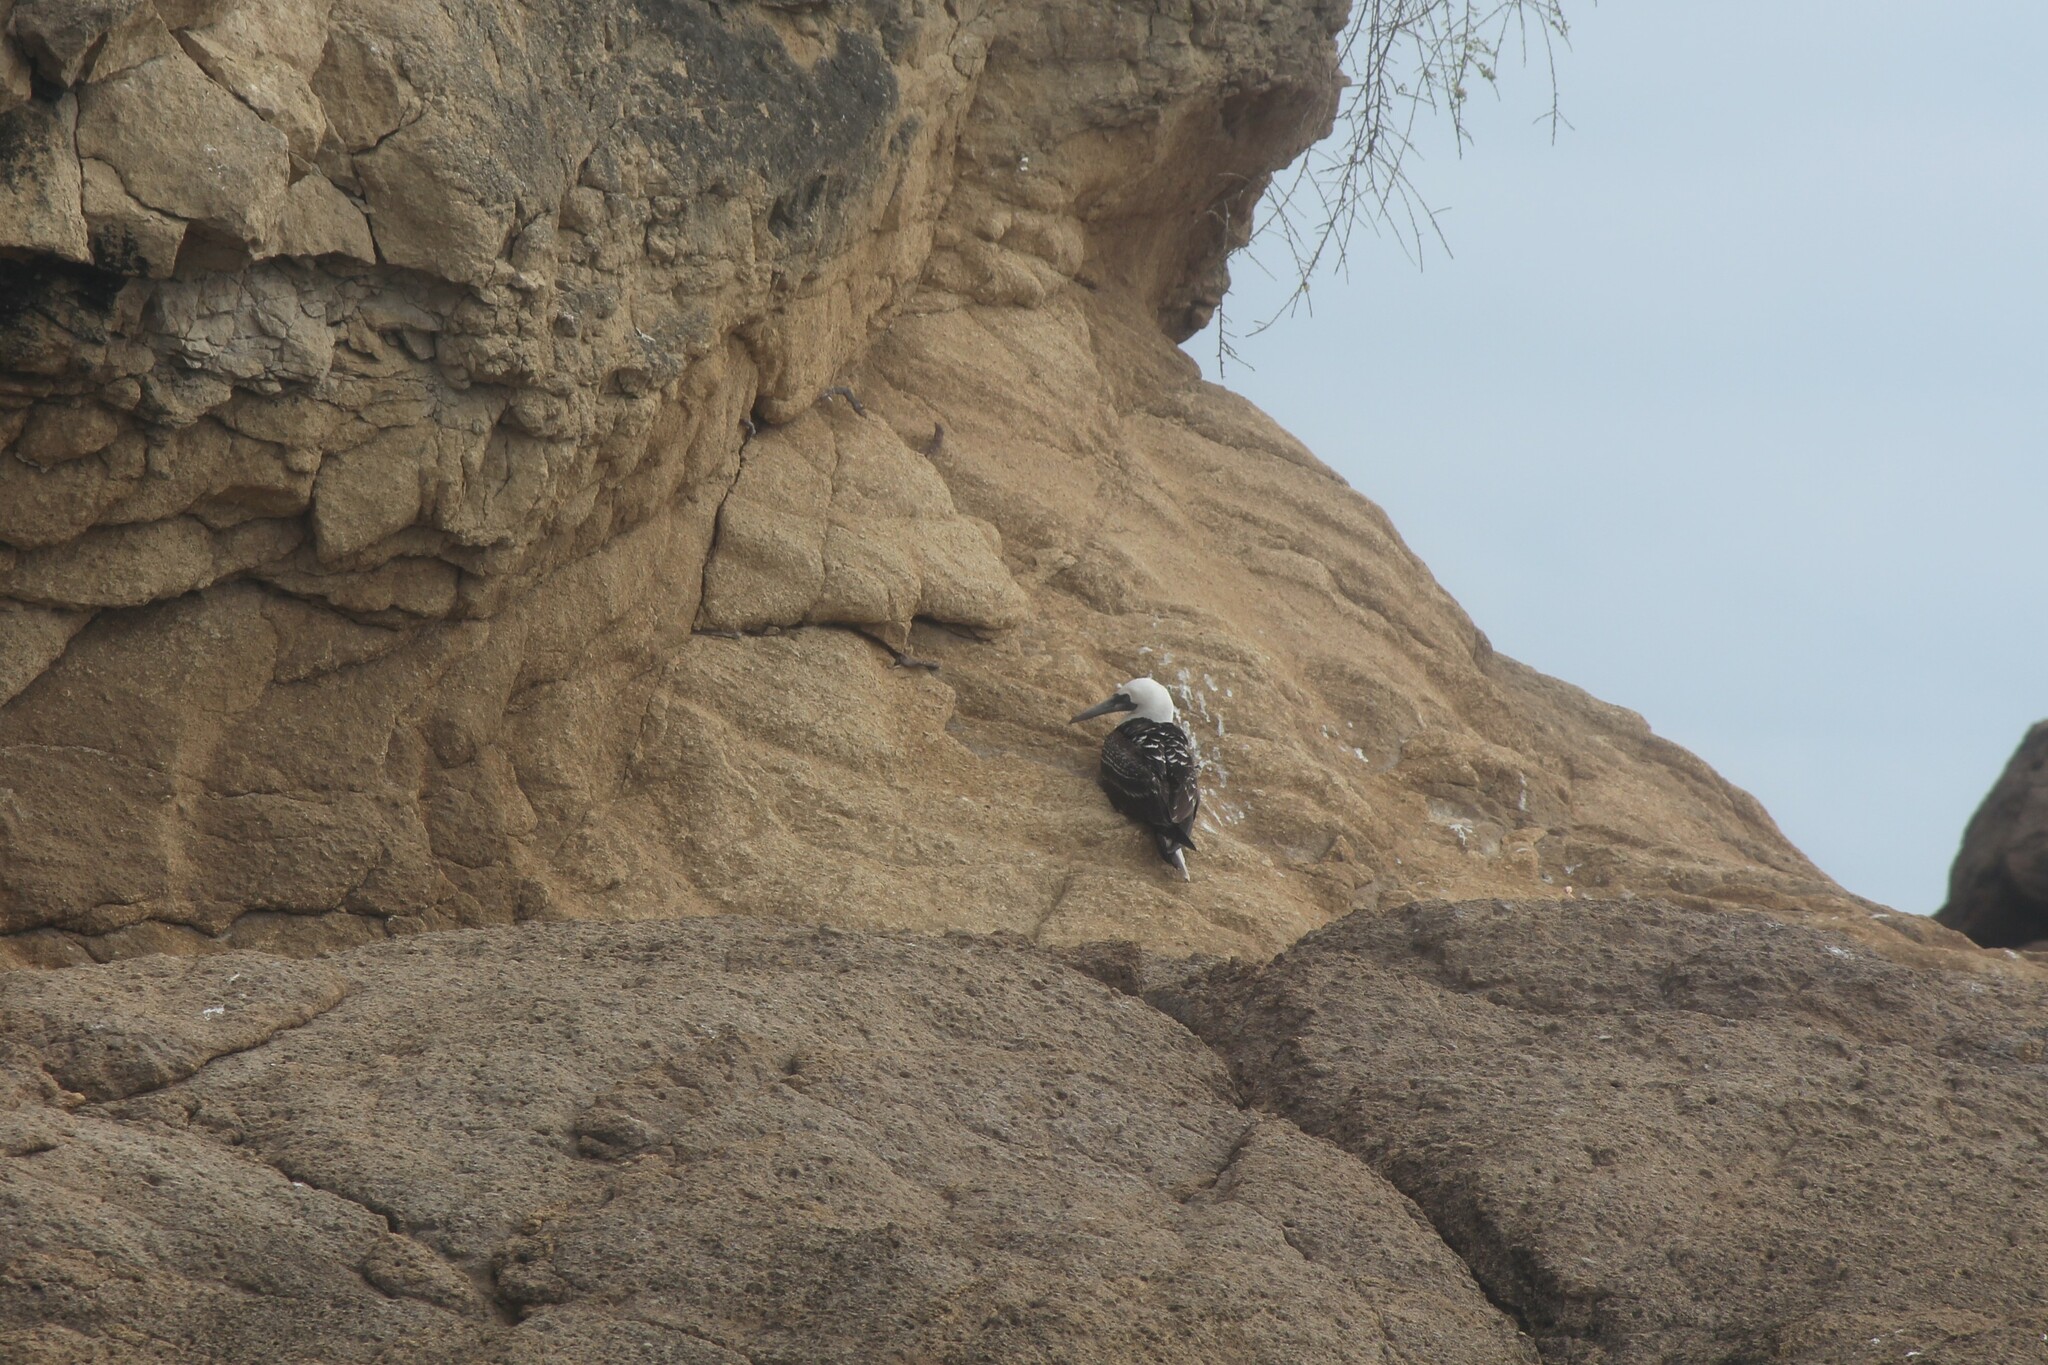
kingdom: Animalia
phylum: Chordata
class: Aves
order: Suliformes
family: Sulidae
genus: Sula
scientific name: Sula variegata
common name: Peruvian booby
